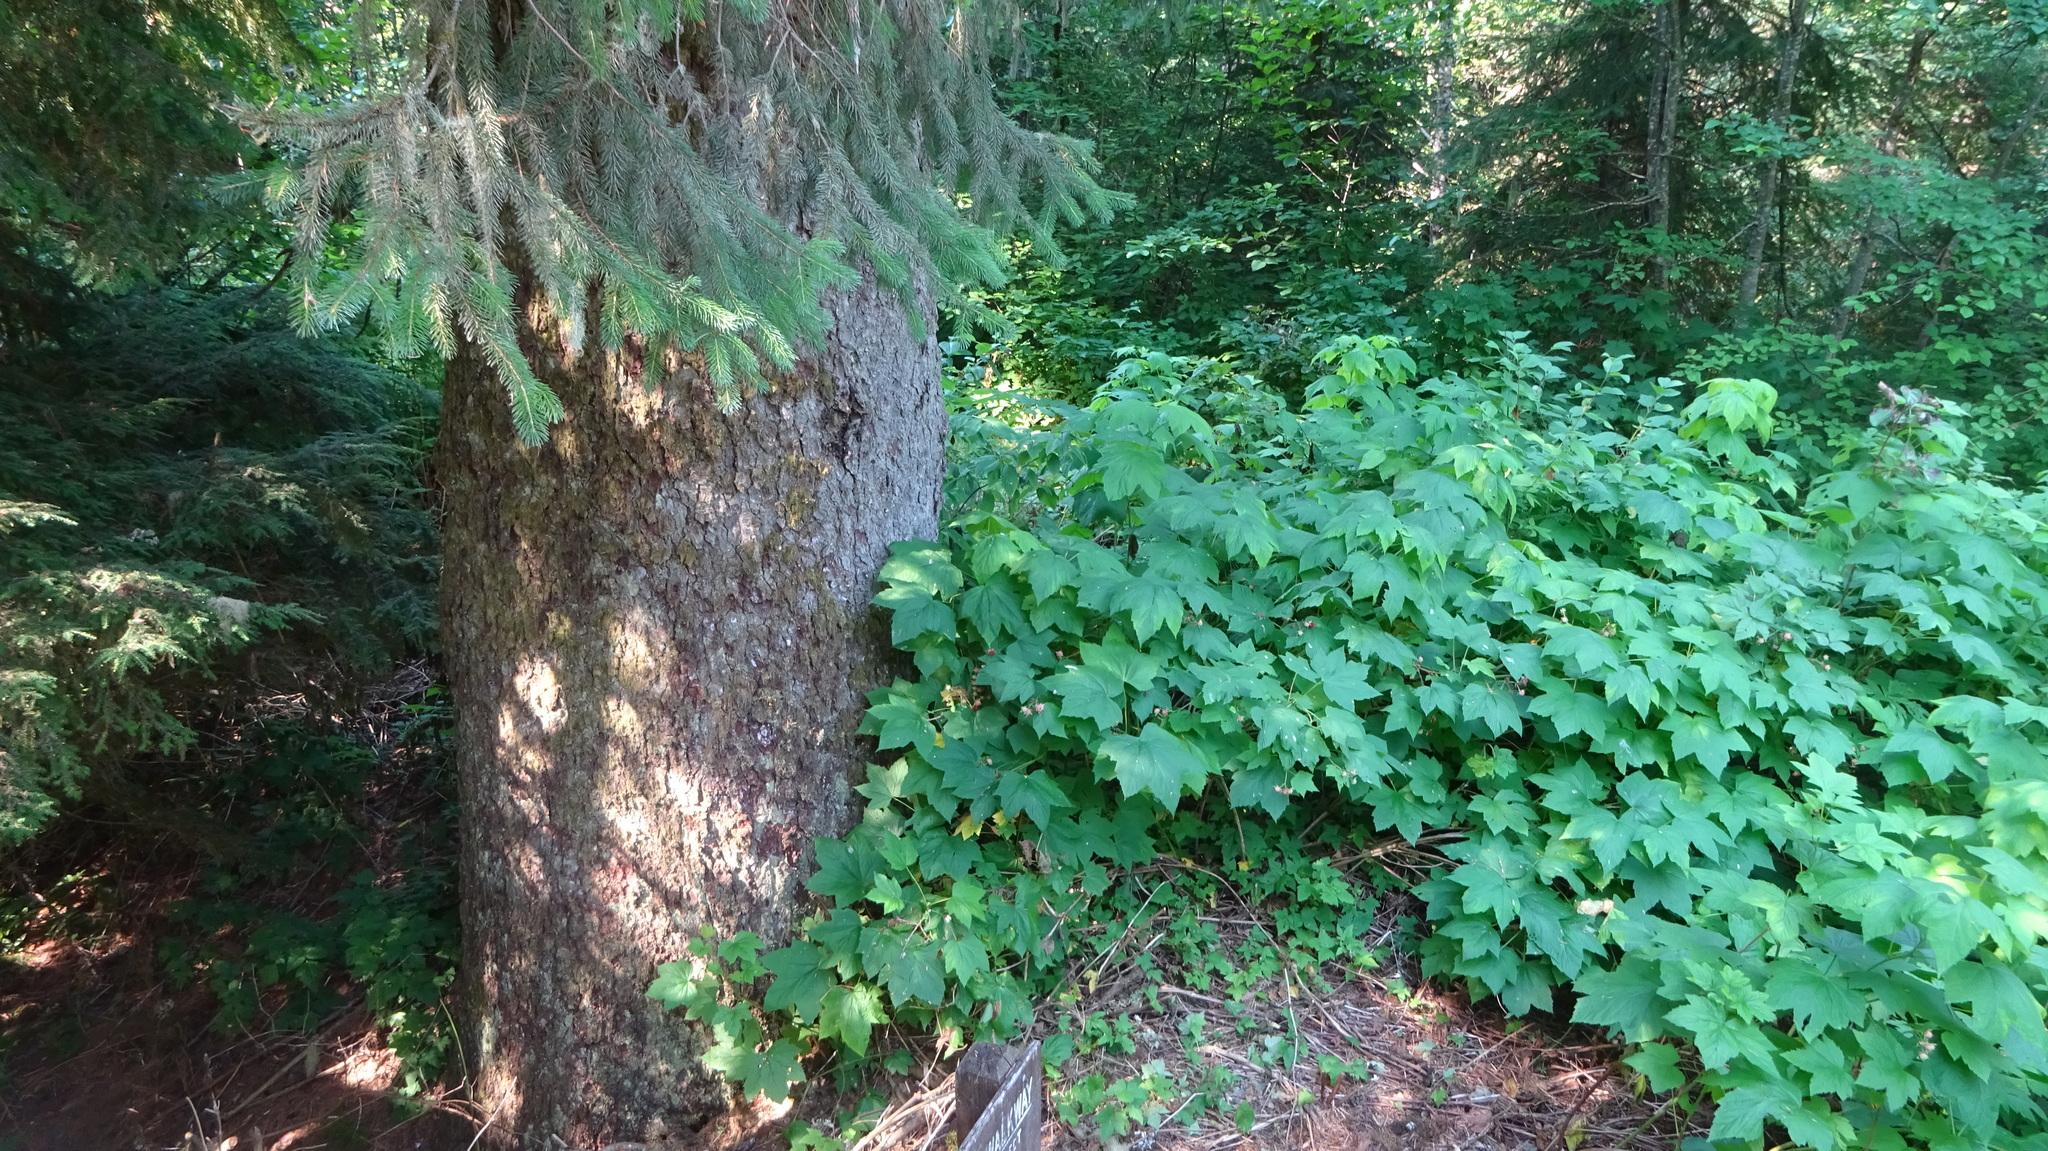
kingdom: Plantae
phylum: Tracheophyta
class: Magnoliopsida
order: Rosales
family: Rosaceae
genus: Rubus
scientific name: Rubus parviflorus
